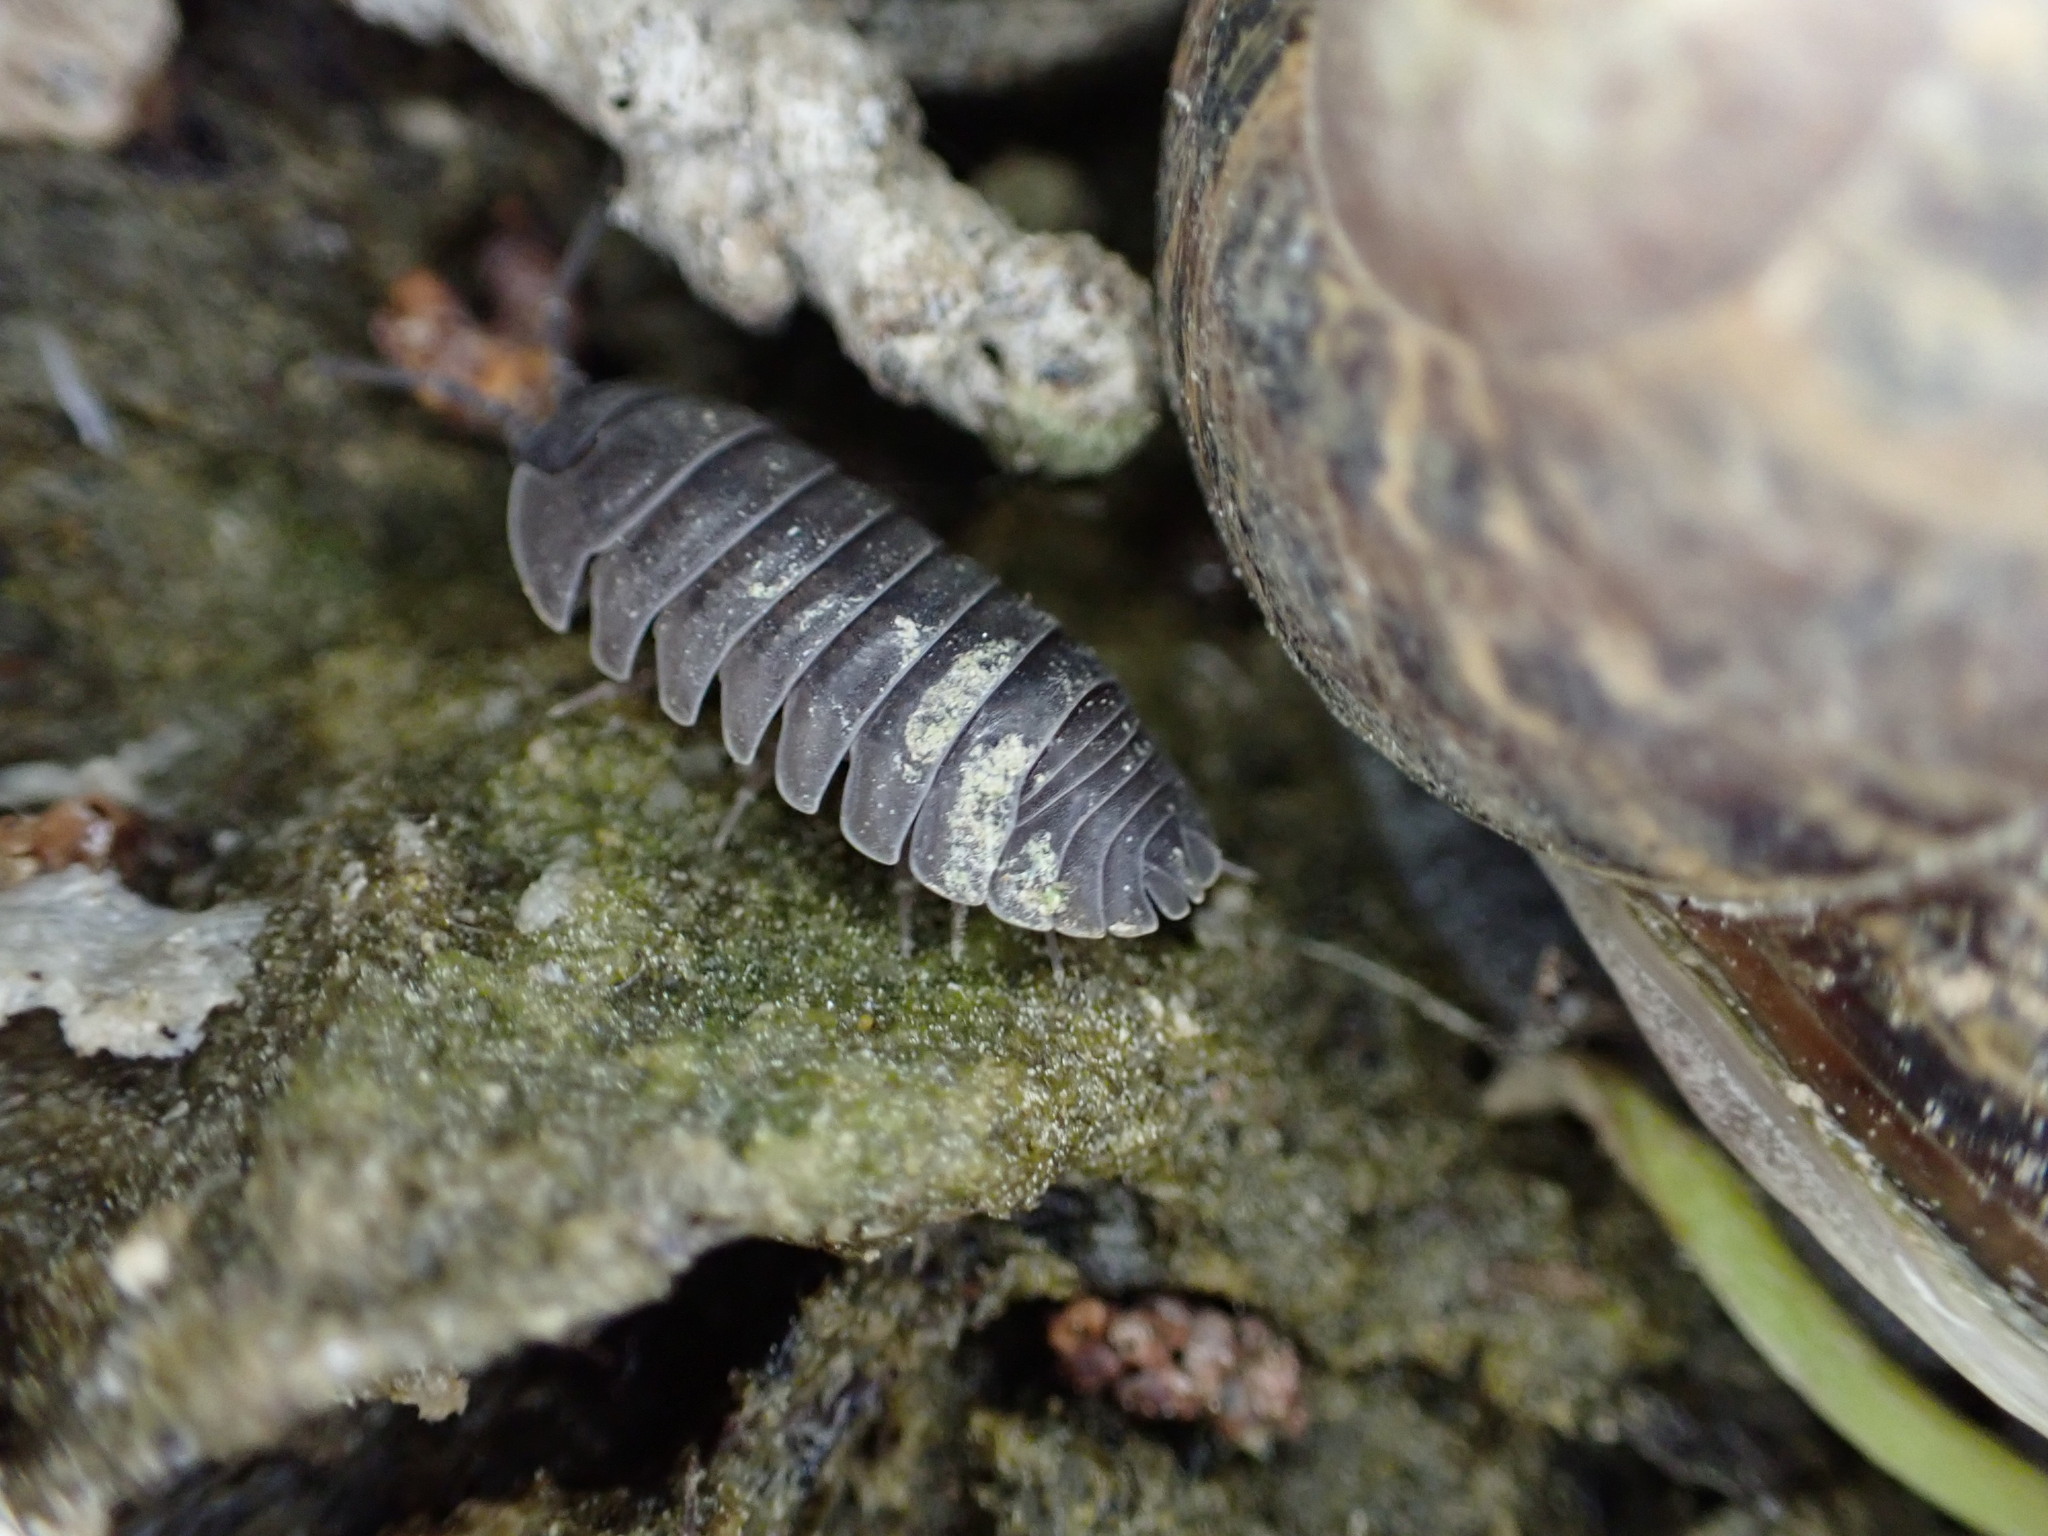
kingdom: Animalia
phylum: Arthropoda
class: Malacostraca
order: Isopoda
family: Armadillidiidae
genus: Armadillidium
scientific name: Armadillidium nasatum
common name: Isopod
